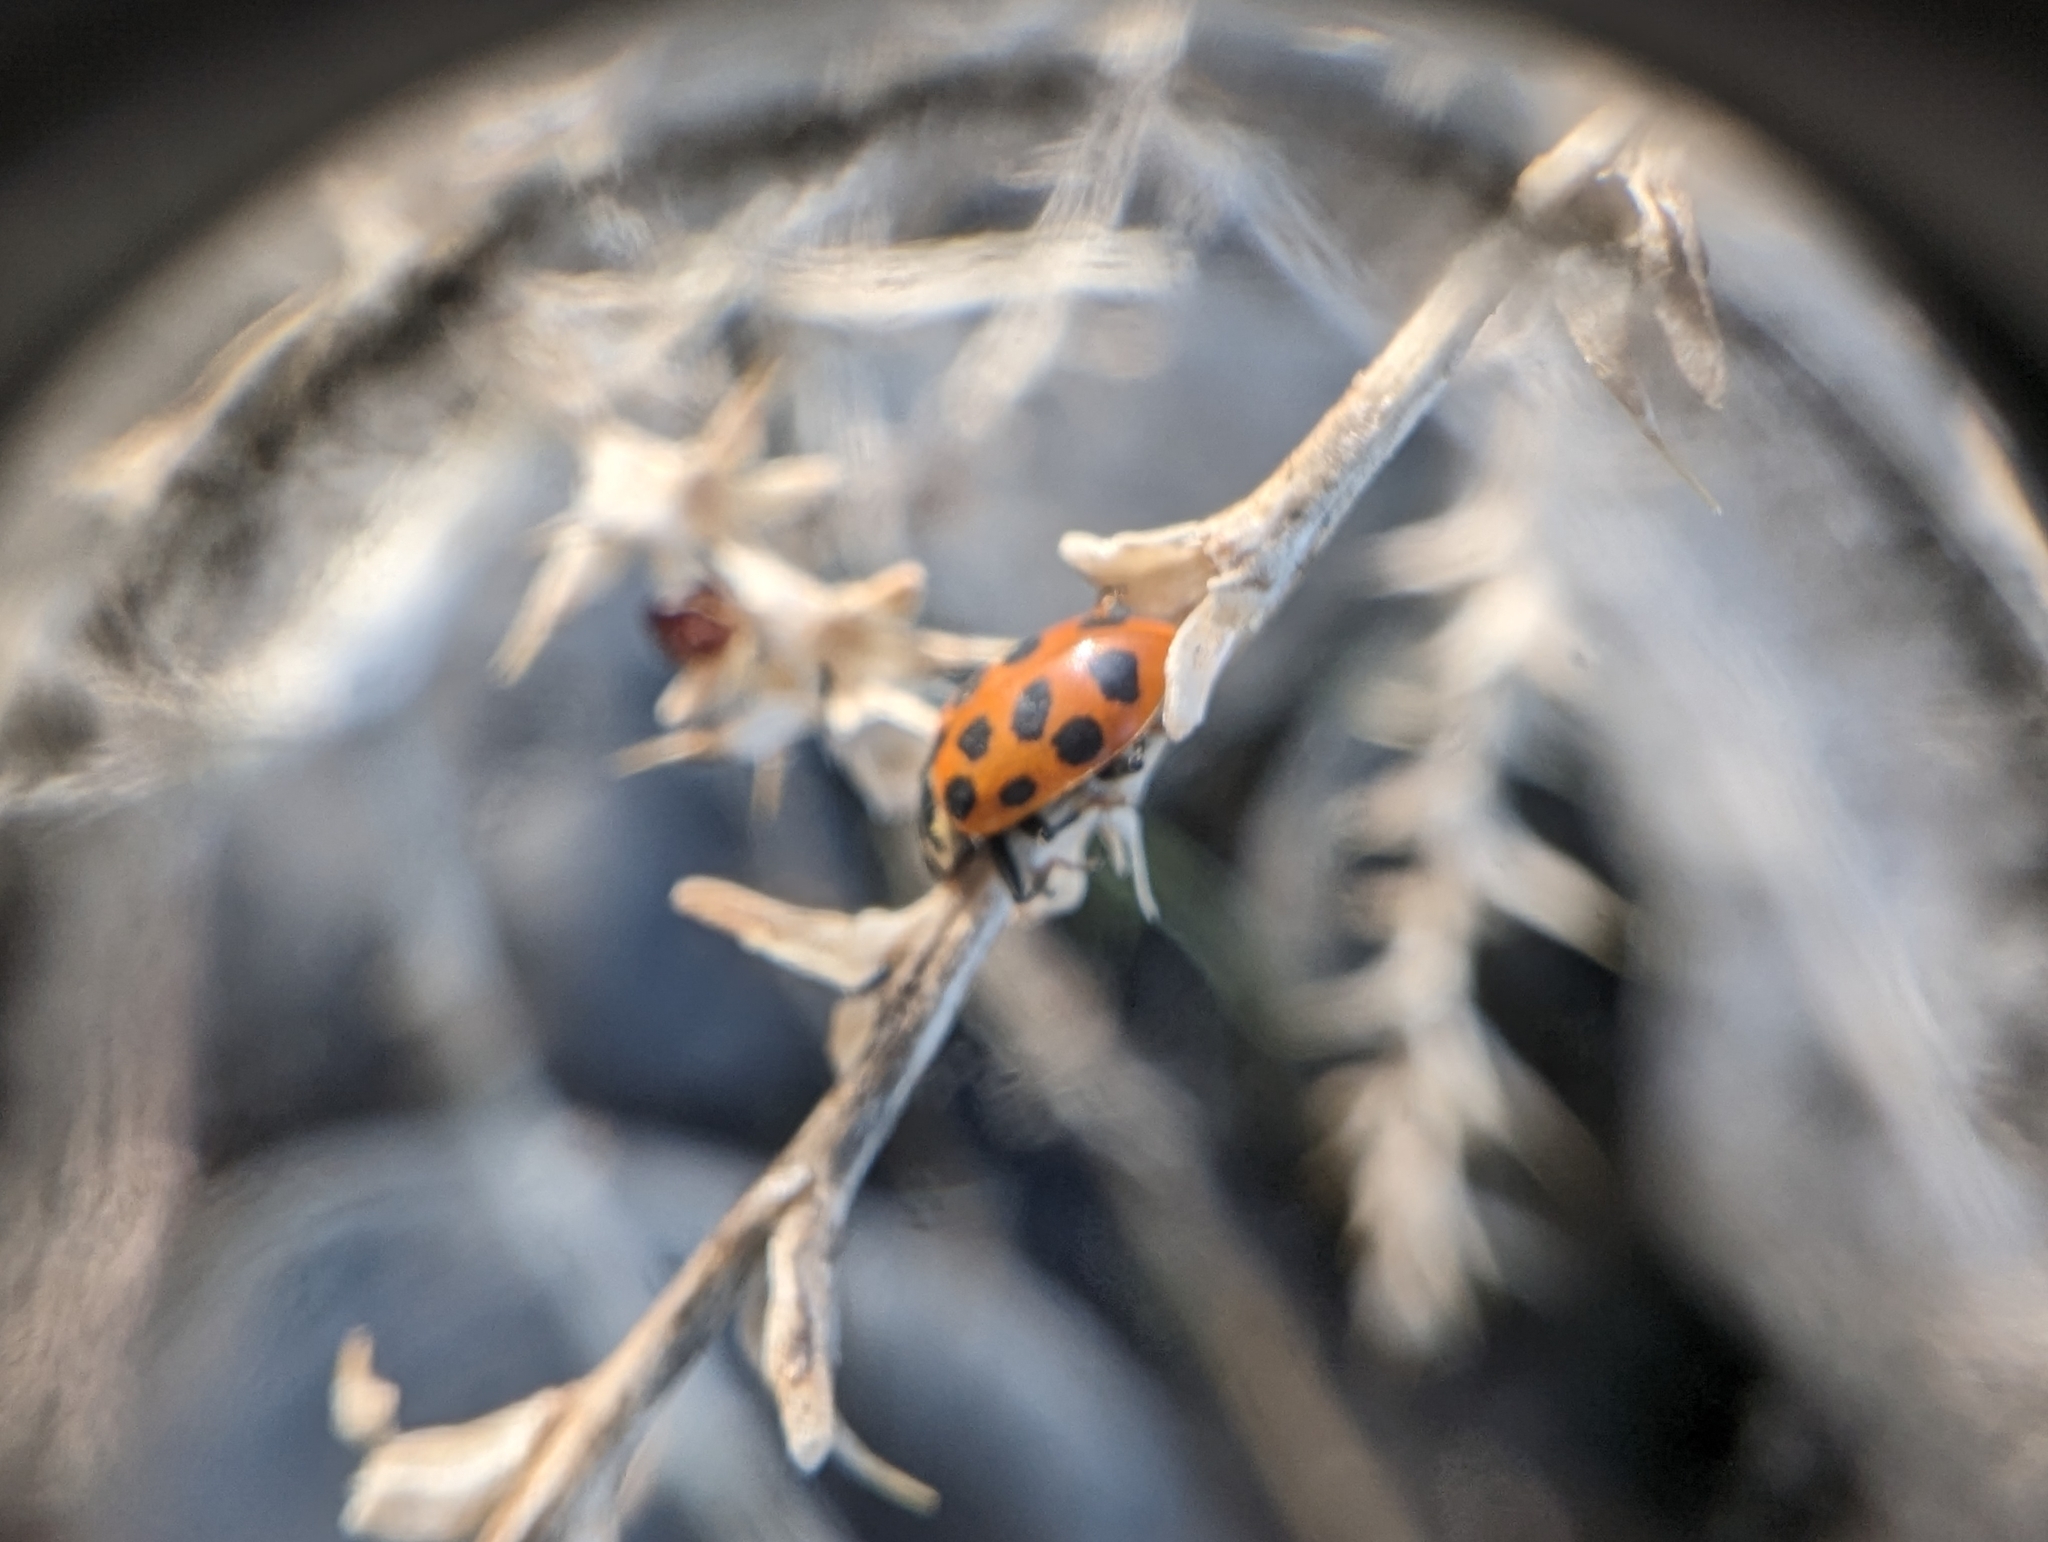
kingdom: Animalia
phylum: Arthropoda
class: Insecta
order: Coleoptera
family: Coccinellidae
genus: Hippodamia
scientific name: Hippodamia tredecimpunctata
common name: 13-spot ladybird
